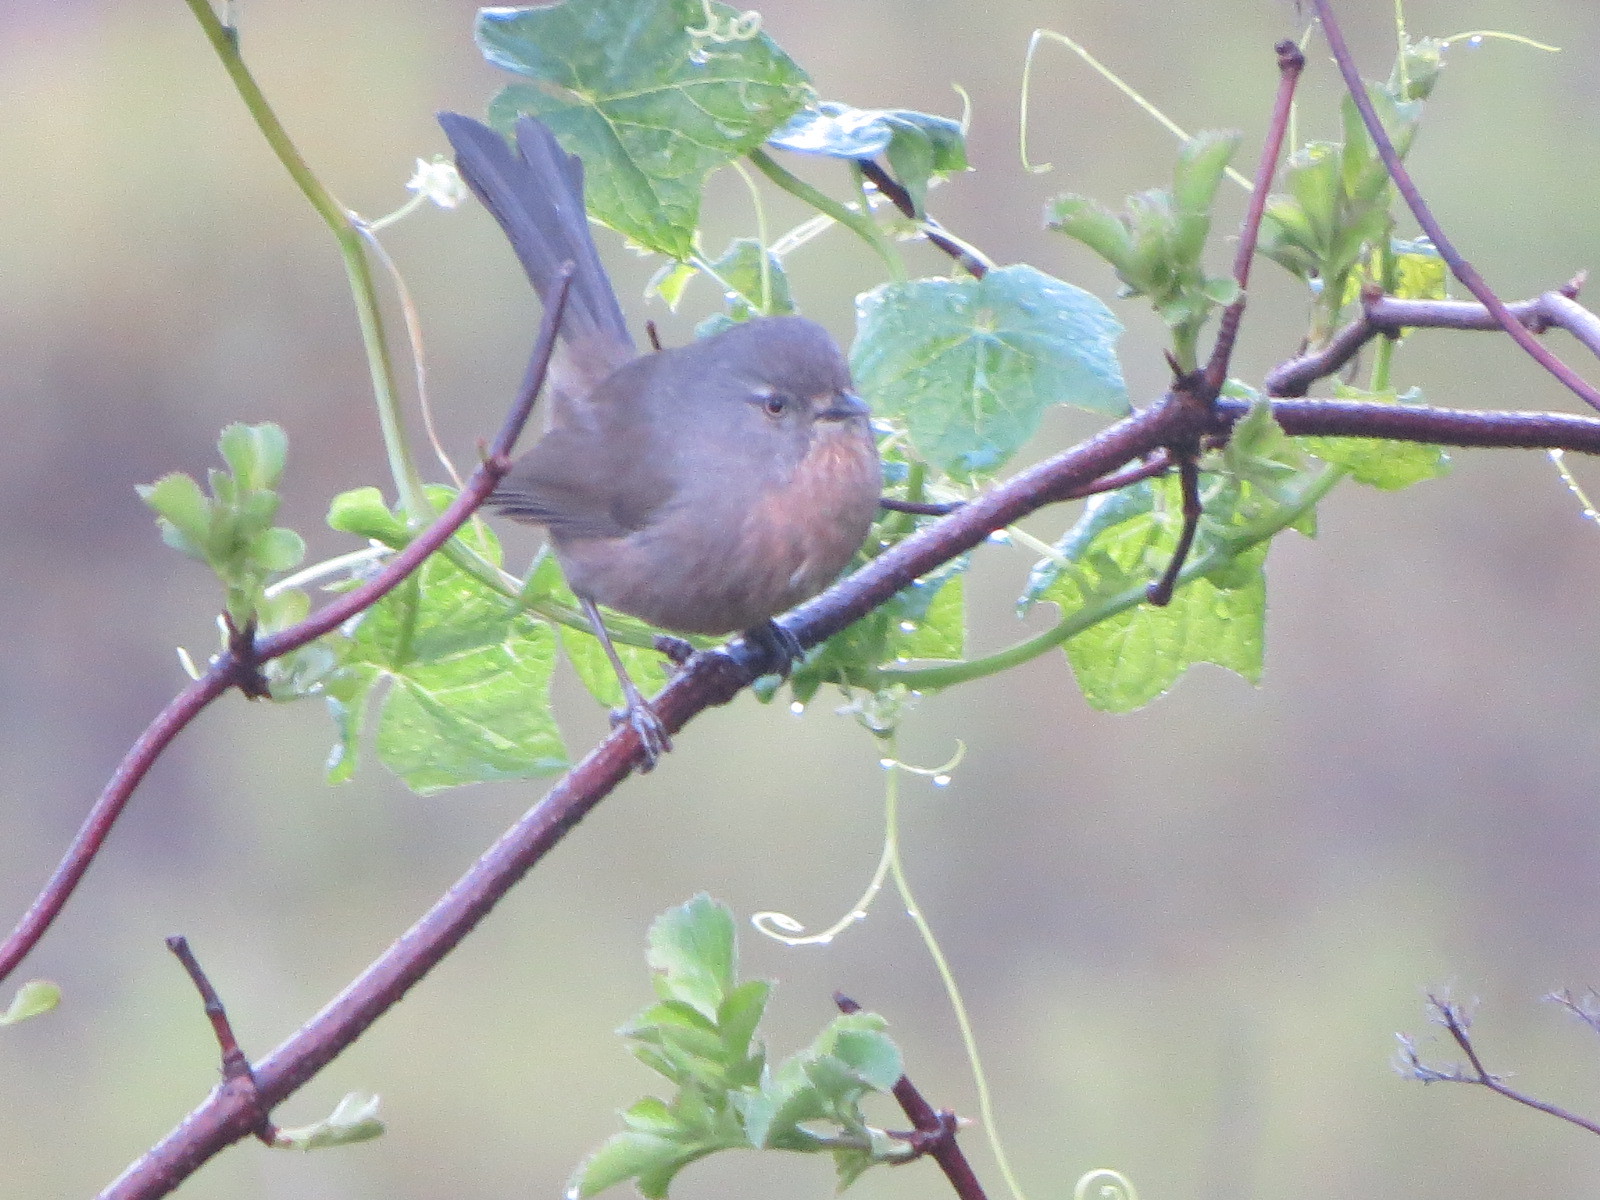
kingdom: Animalia
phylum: Chordata
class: Aves
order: Passeriformes
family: Sylviidae
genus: Chamaea
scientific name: Chamaea fasciata
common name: Wrentit
